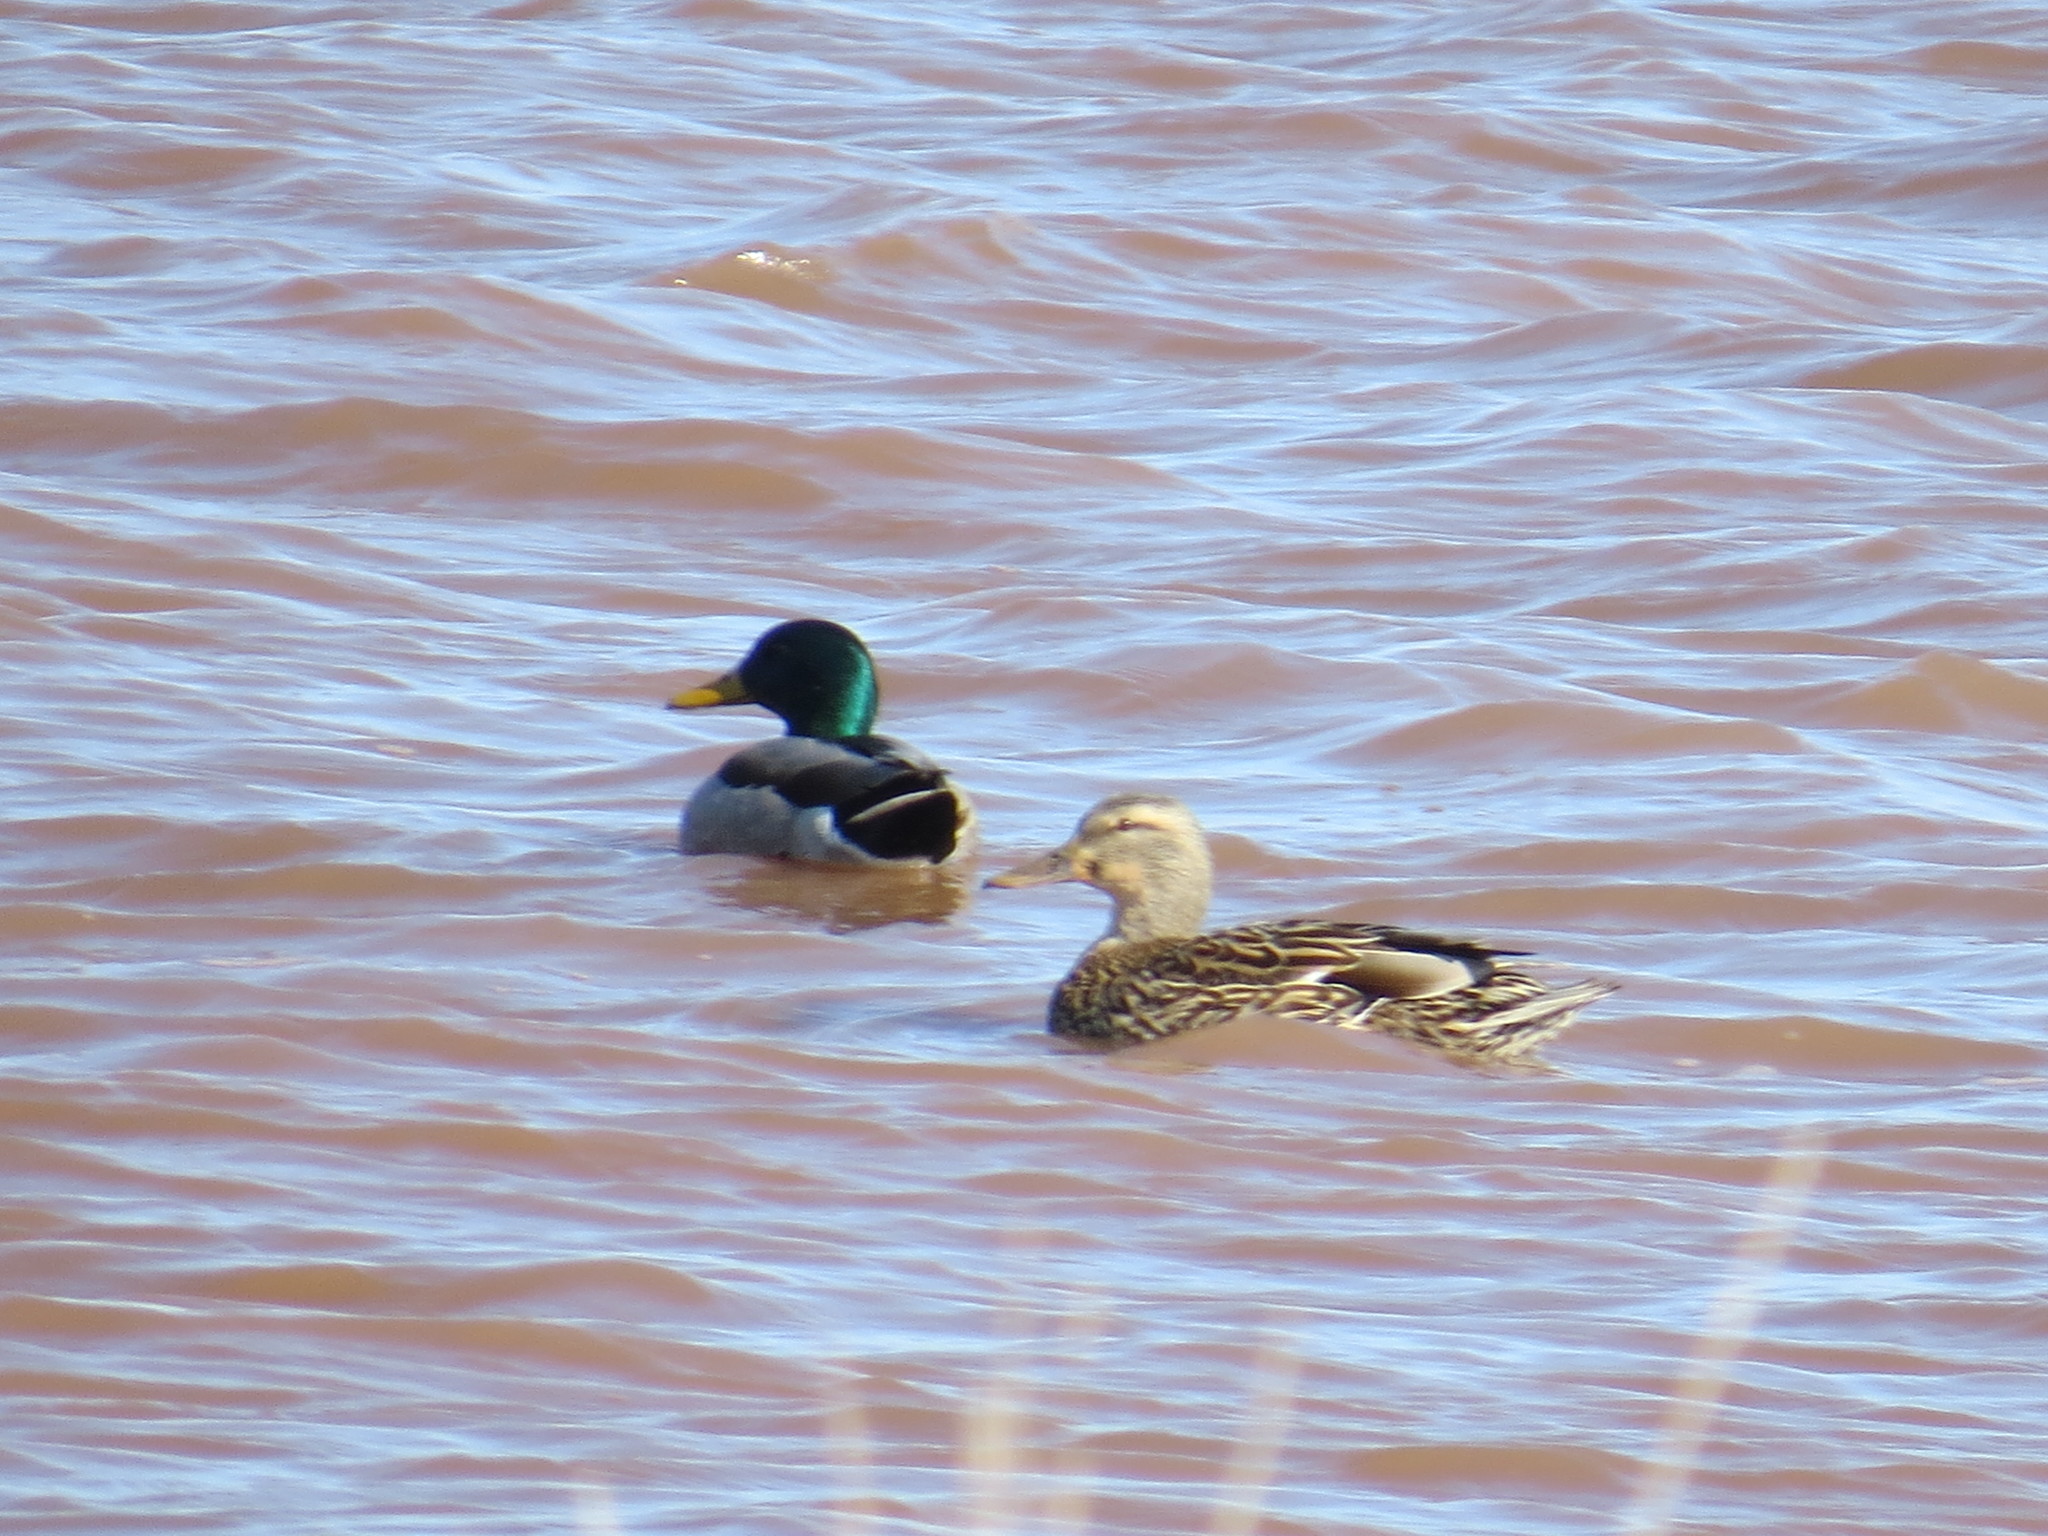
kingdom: Animalia
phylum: Chordata
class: Aves
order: Anseriformes
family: Anatidae
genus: Anas
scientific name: Anas platyrhynchos
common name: Mallard
